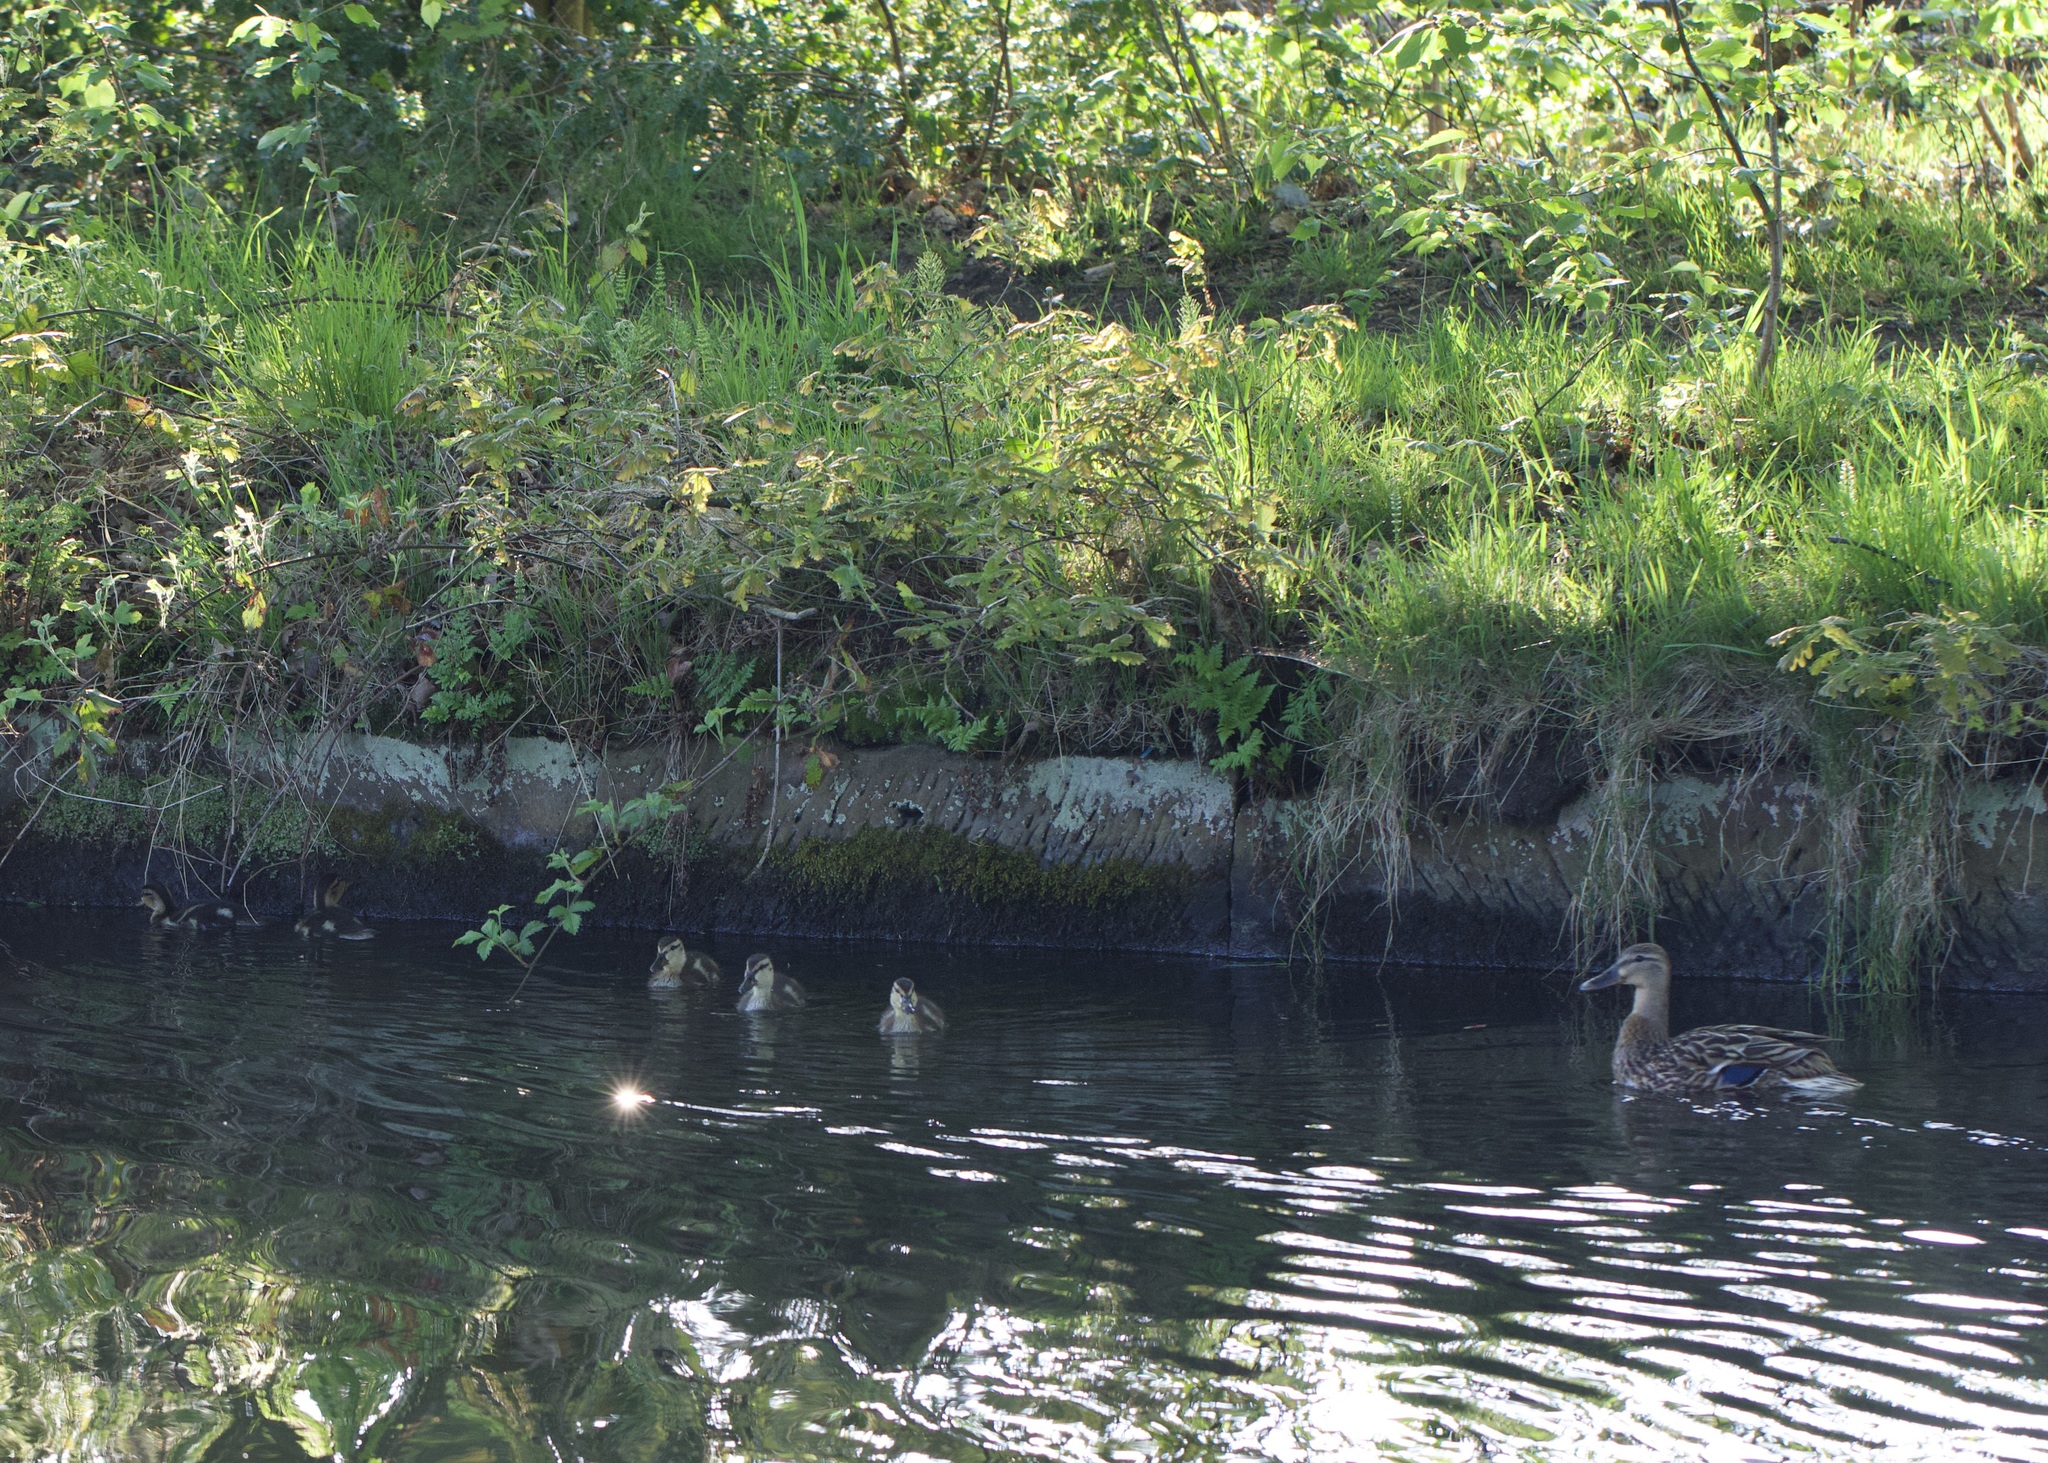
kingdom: Animalia
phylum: Chordata
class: Aves
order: Anseriformes
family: Anatidae
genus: Anas
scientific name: Anas platyrhynchos
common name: Mallard
